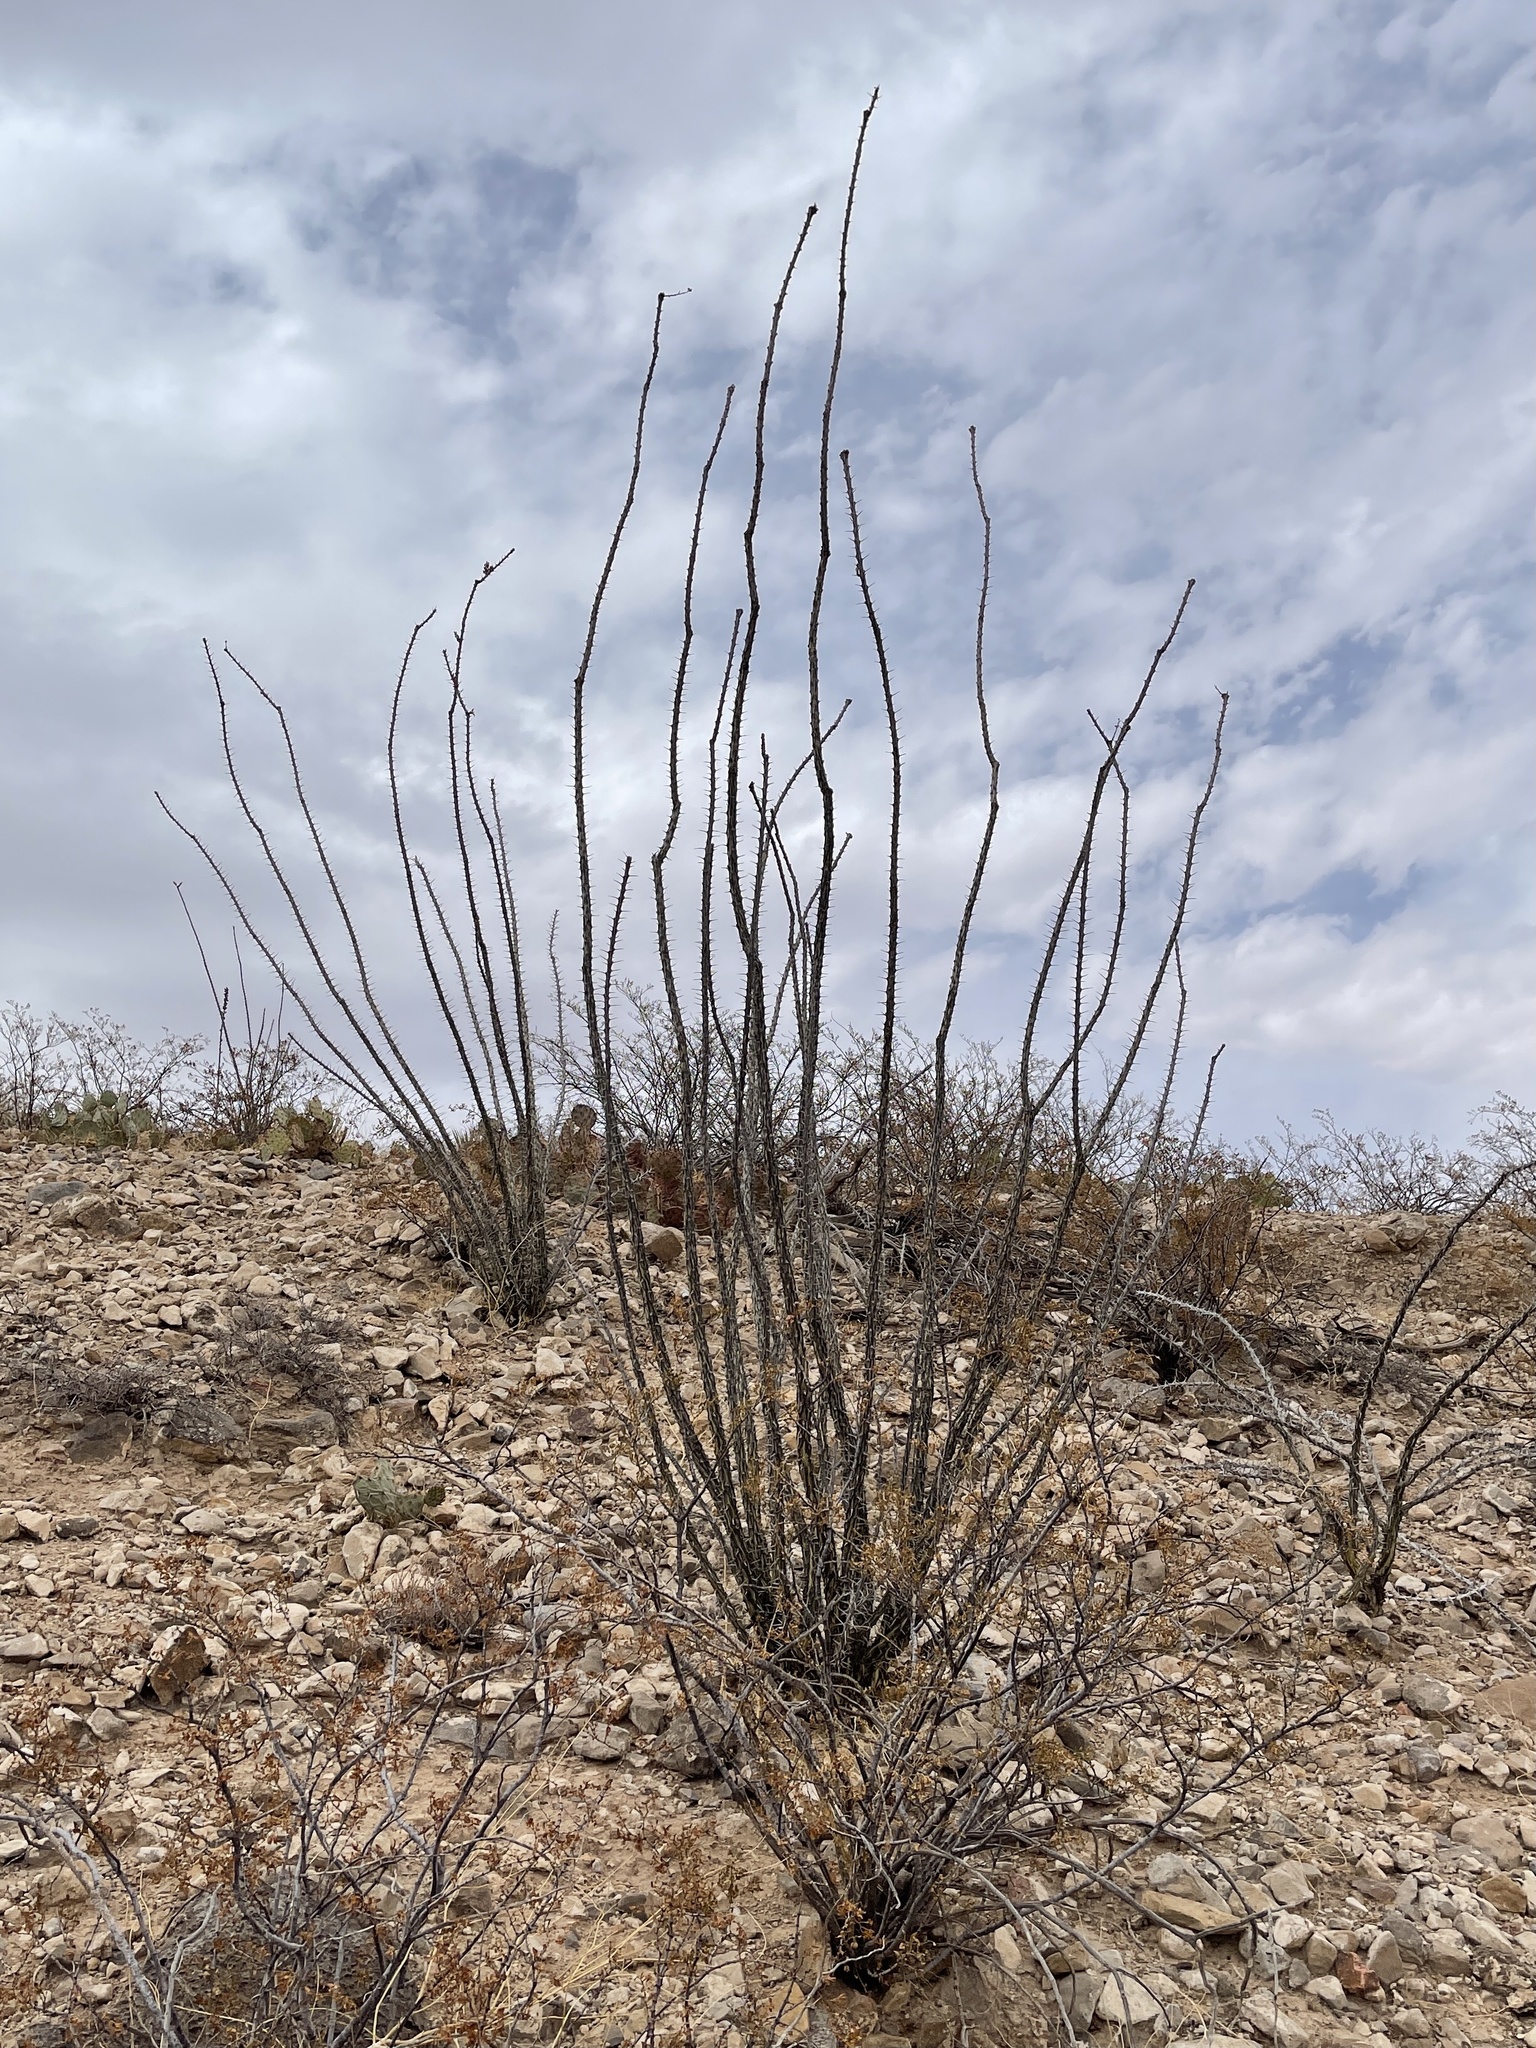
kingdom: Plantae
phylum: Tracheophyta
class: Magnoliopsida
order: Ericales
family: Fouquieriaceae
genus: Fouquieria
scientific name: Fouquieria splendens
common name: Vine-cactus
